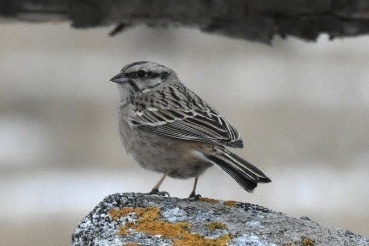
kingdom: Animalia
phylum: Chordata
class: Aves
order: Passeriformes
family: Emberizidae
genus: Emberiza
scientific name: Emberiza cia
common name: Rock bunting
